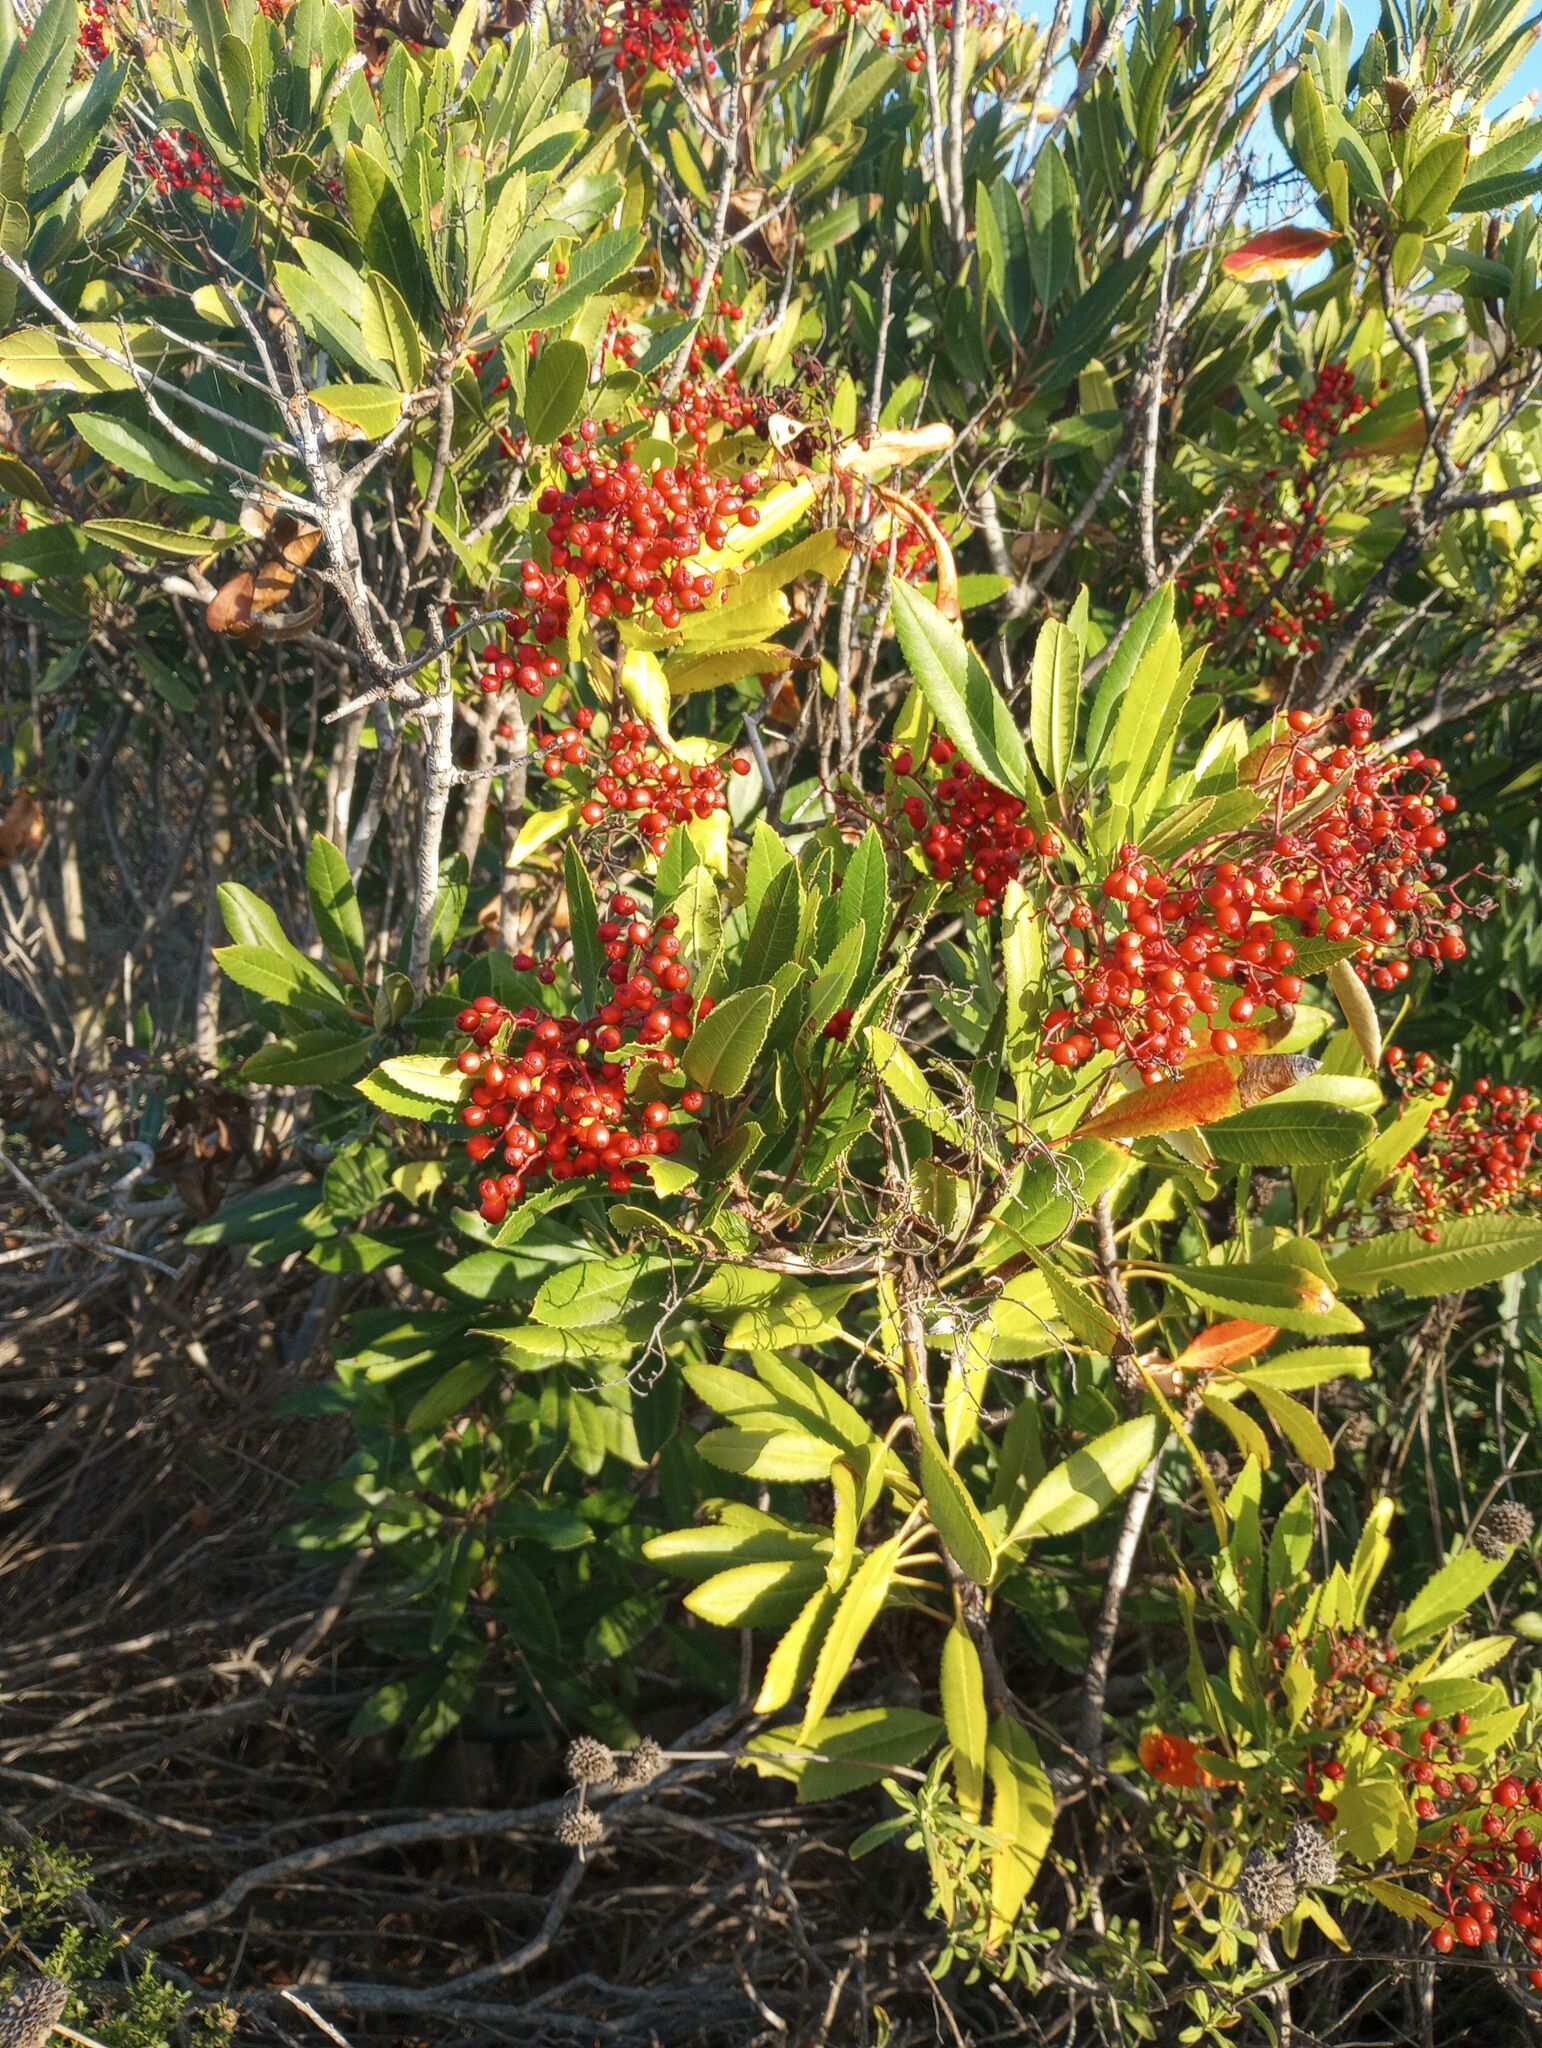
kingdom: Plantae
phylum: Tracheophyta
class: Magnoliopsida
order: Rosales
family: Rosaceae
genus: Heteromeles
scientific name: Heteromeles arbutifolia
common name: California-holly
